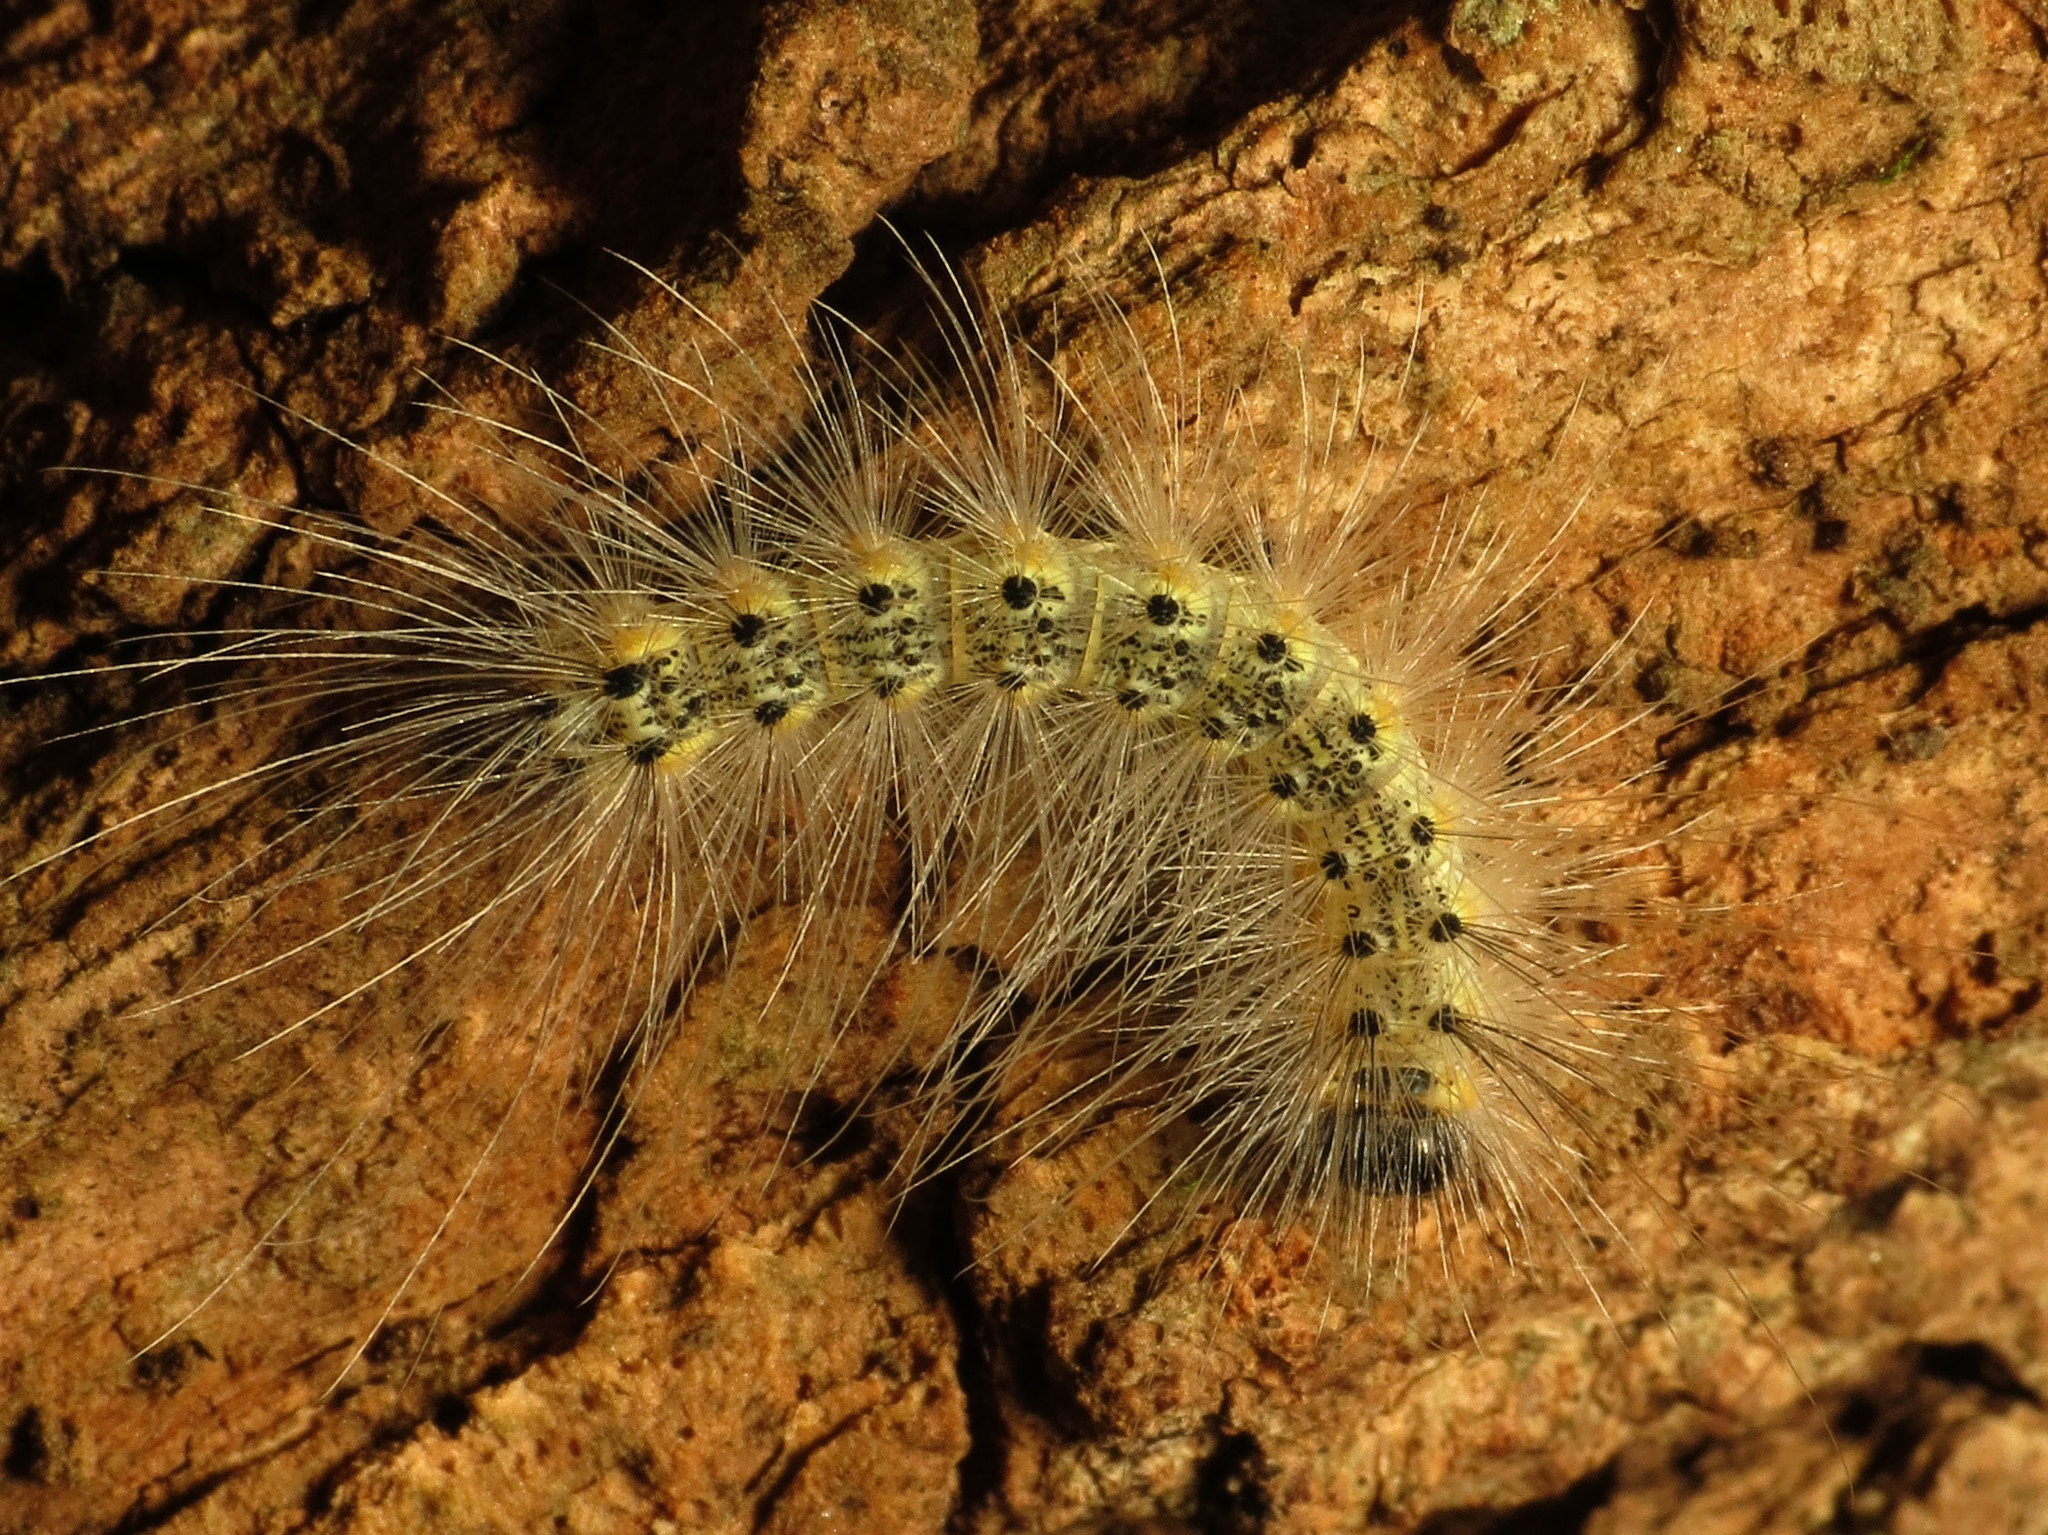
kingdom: Animalia
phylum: Arthropoda
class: Insecta
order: Lepidoptera
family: Erebidae
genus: Hyphantria
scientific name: Hyphantria cunea
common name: American white moth
